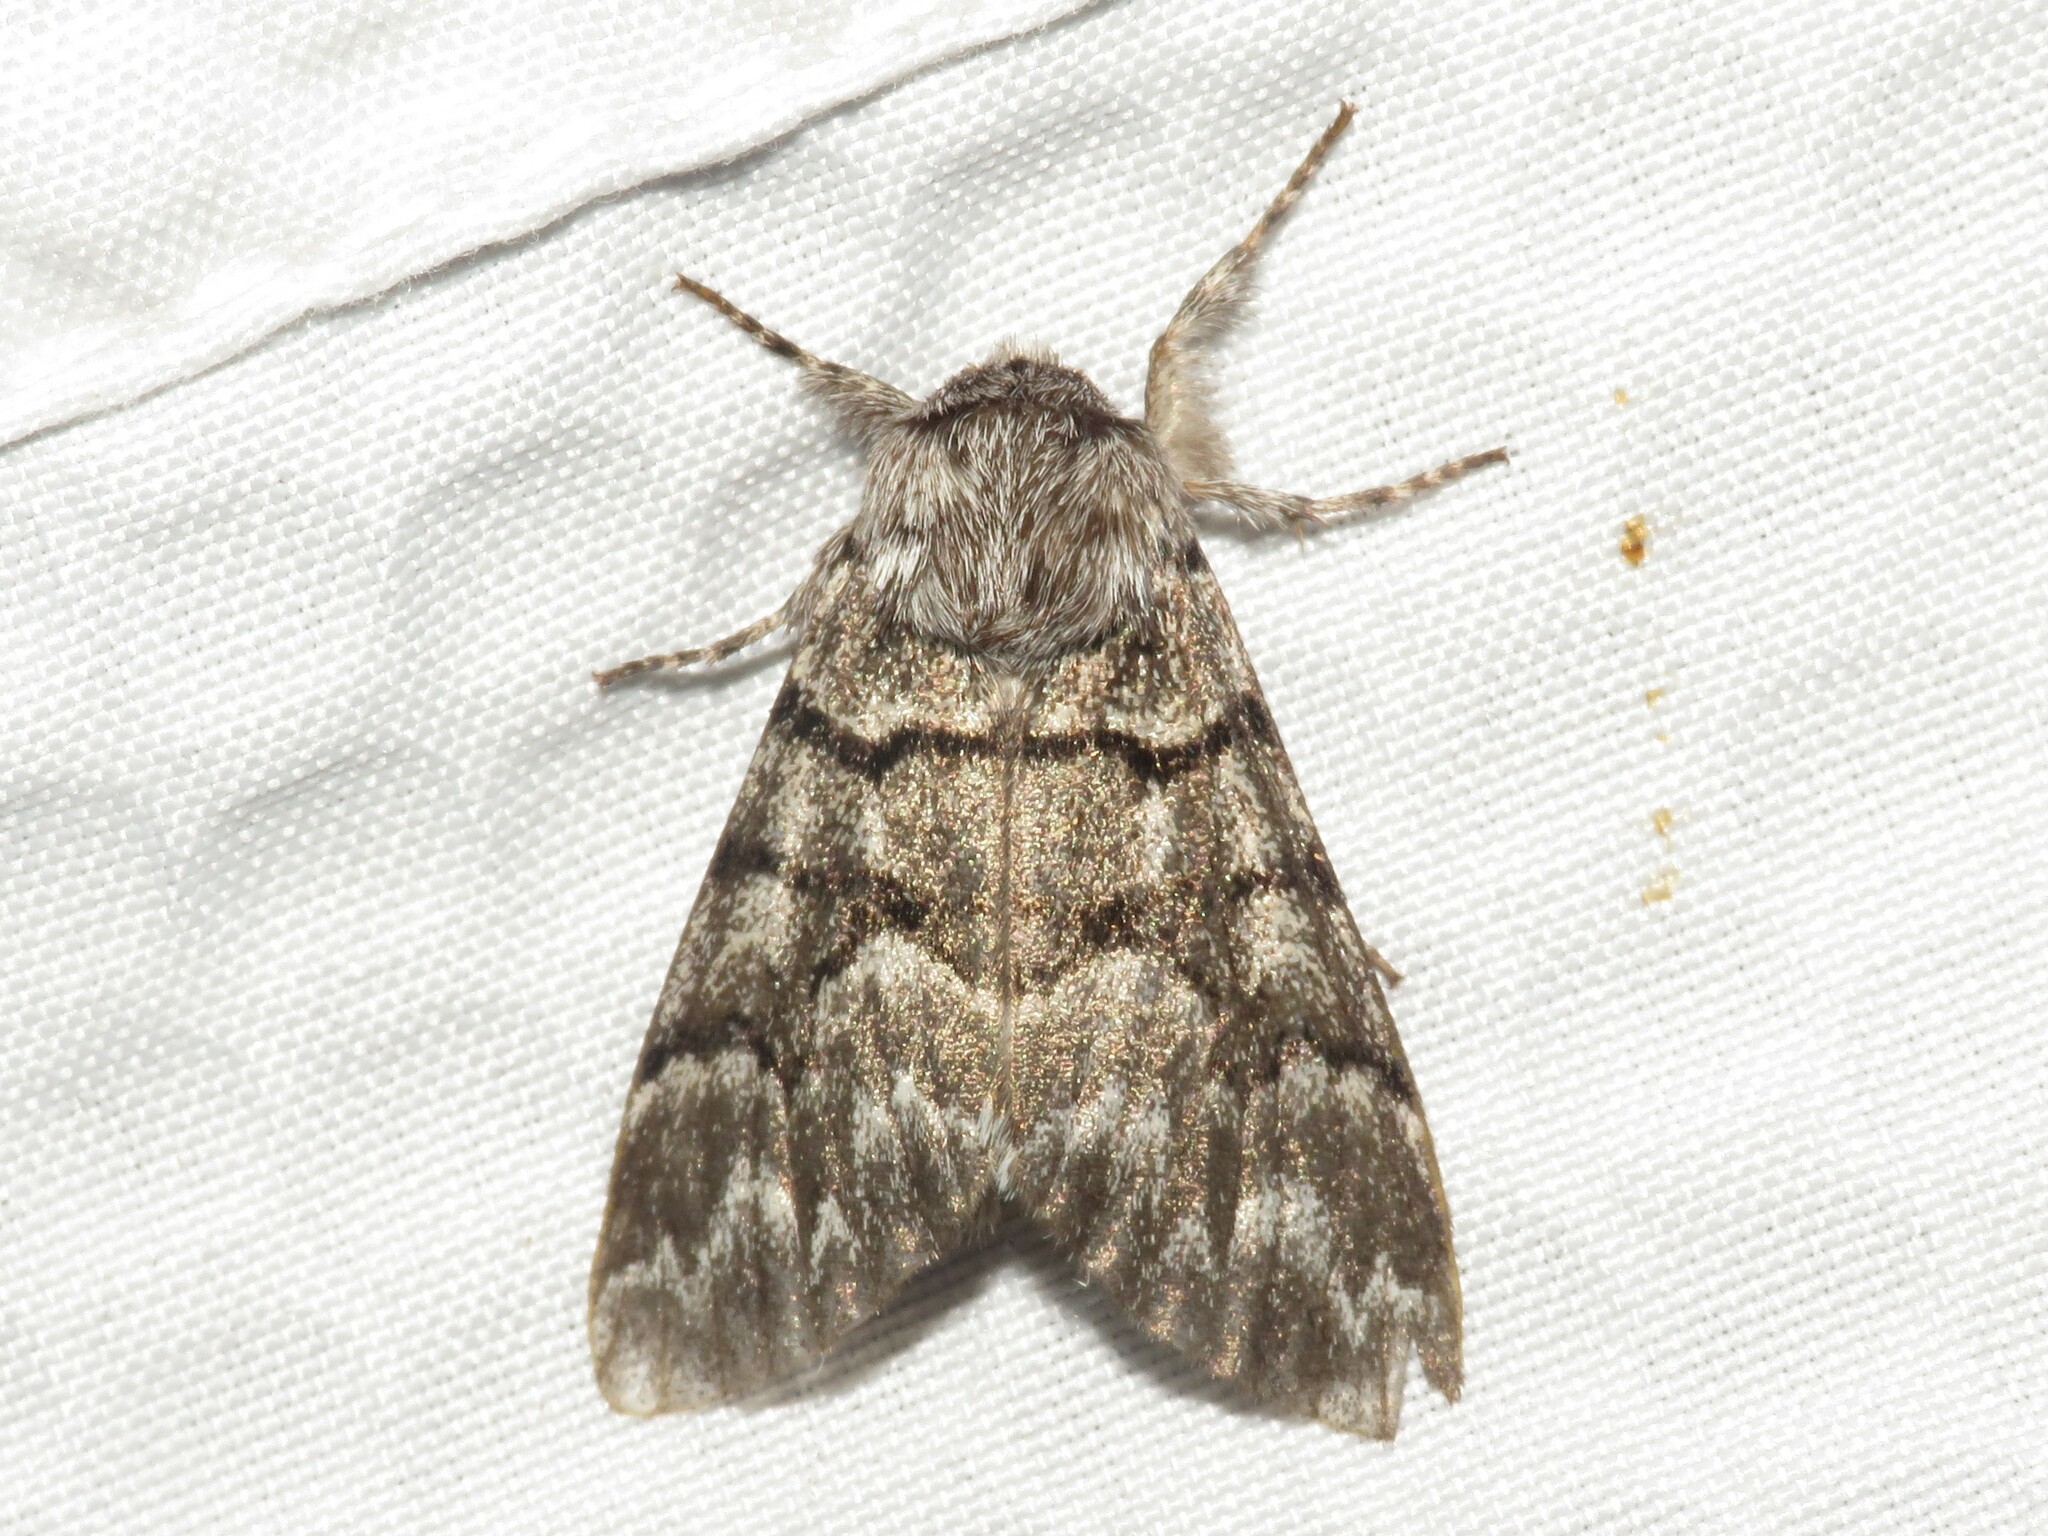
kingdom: Animalia
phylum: Arthropoda
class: Insecta
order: Lepidoptera
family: Noctuidae
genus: Panthea
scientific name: Panthea furcilla
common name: Eastern panthea moth
